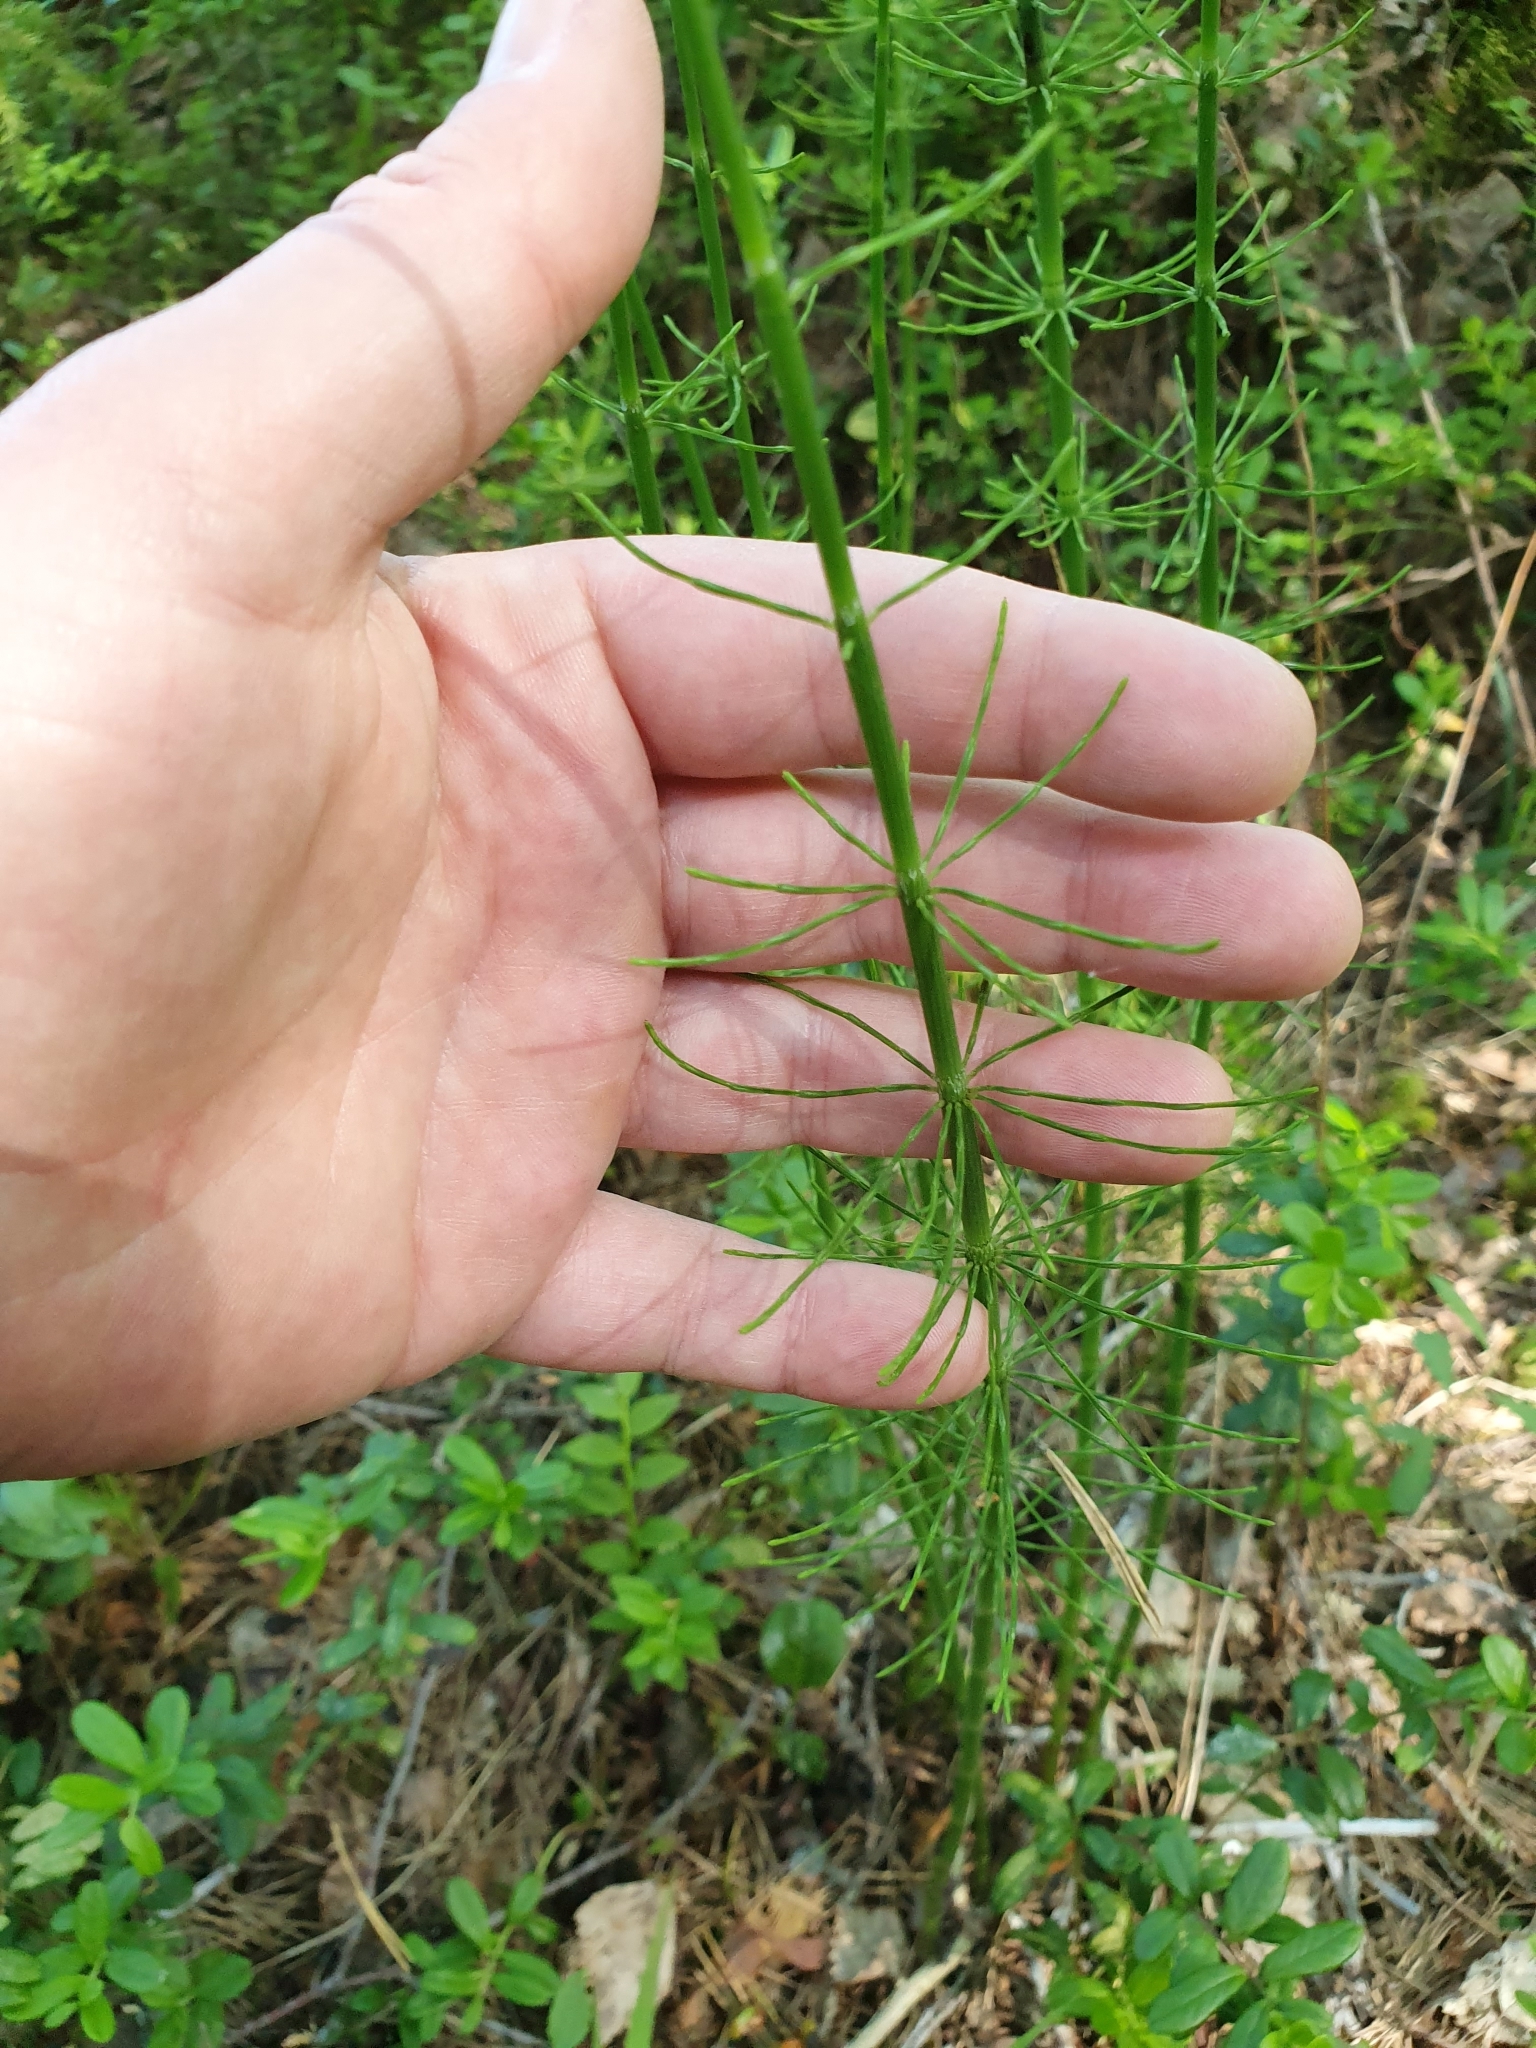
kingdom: Plantae
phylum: Tracheophyta
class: Polypodiopsida
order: Equisetales
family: Equisetaceae
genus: Equisetum
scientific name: Equisetum fluviatile
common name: Water horsetail
